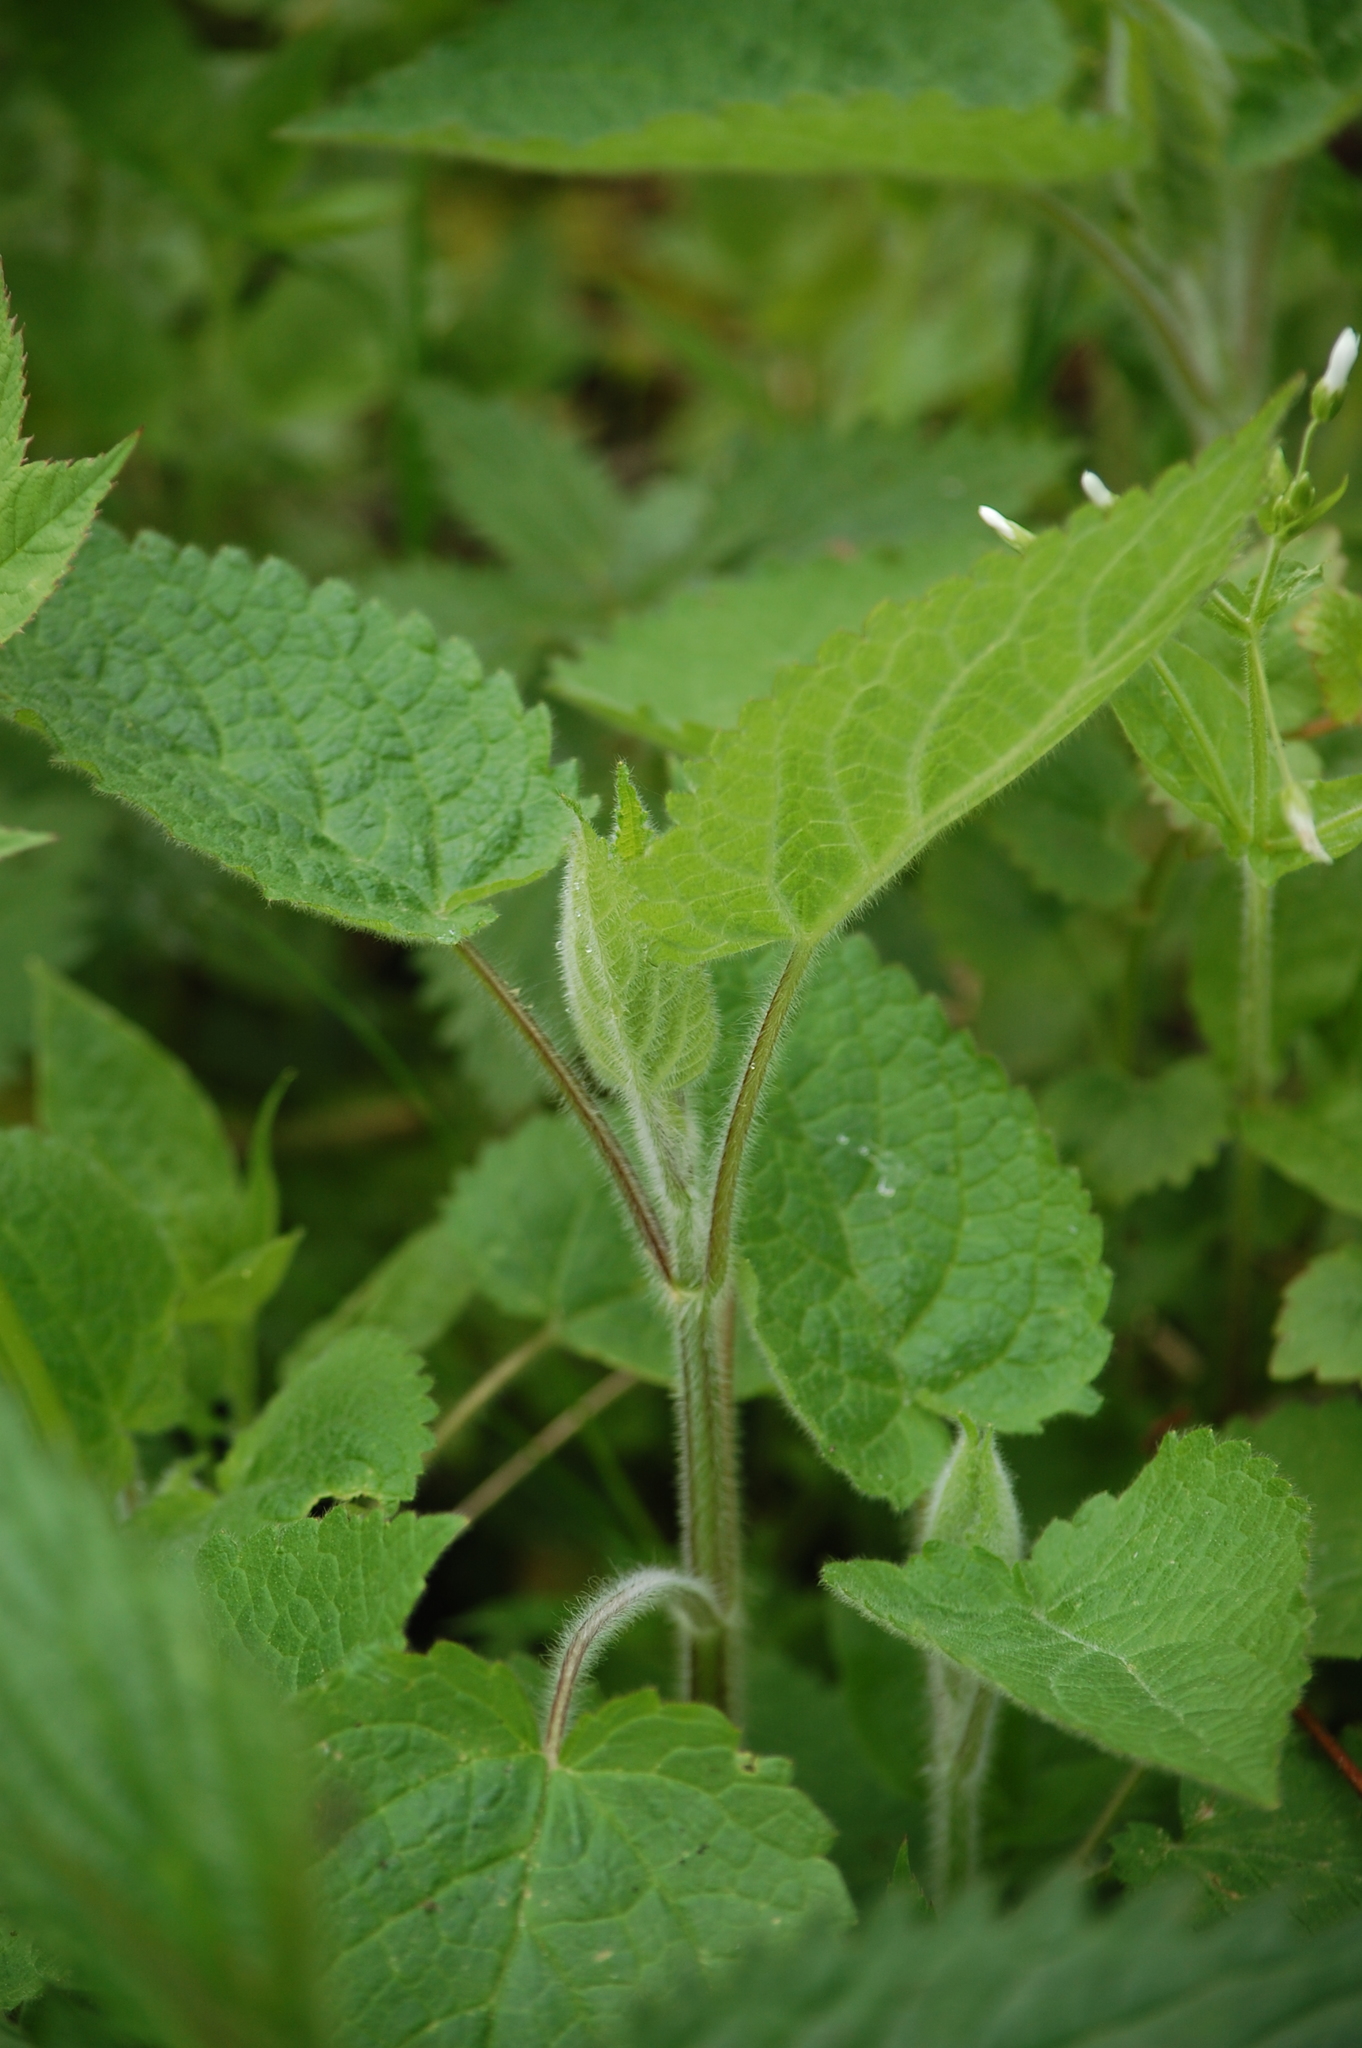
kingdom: Plantae
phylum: Tracheophyta
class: Magnoliopsida
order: Lamiales
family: Lamiaceae
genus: Stachys
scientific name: Stachys sylvatica
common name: Hedge woundwort
